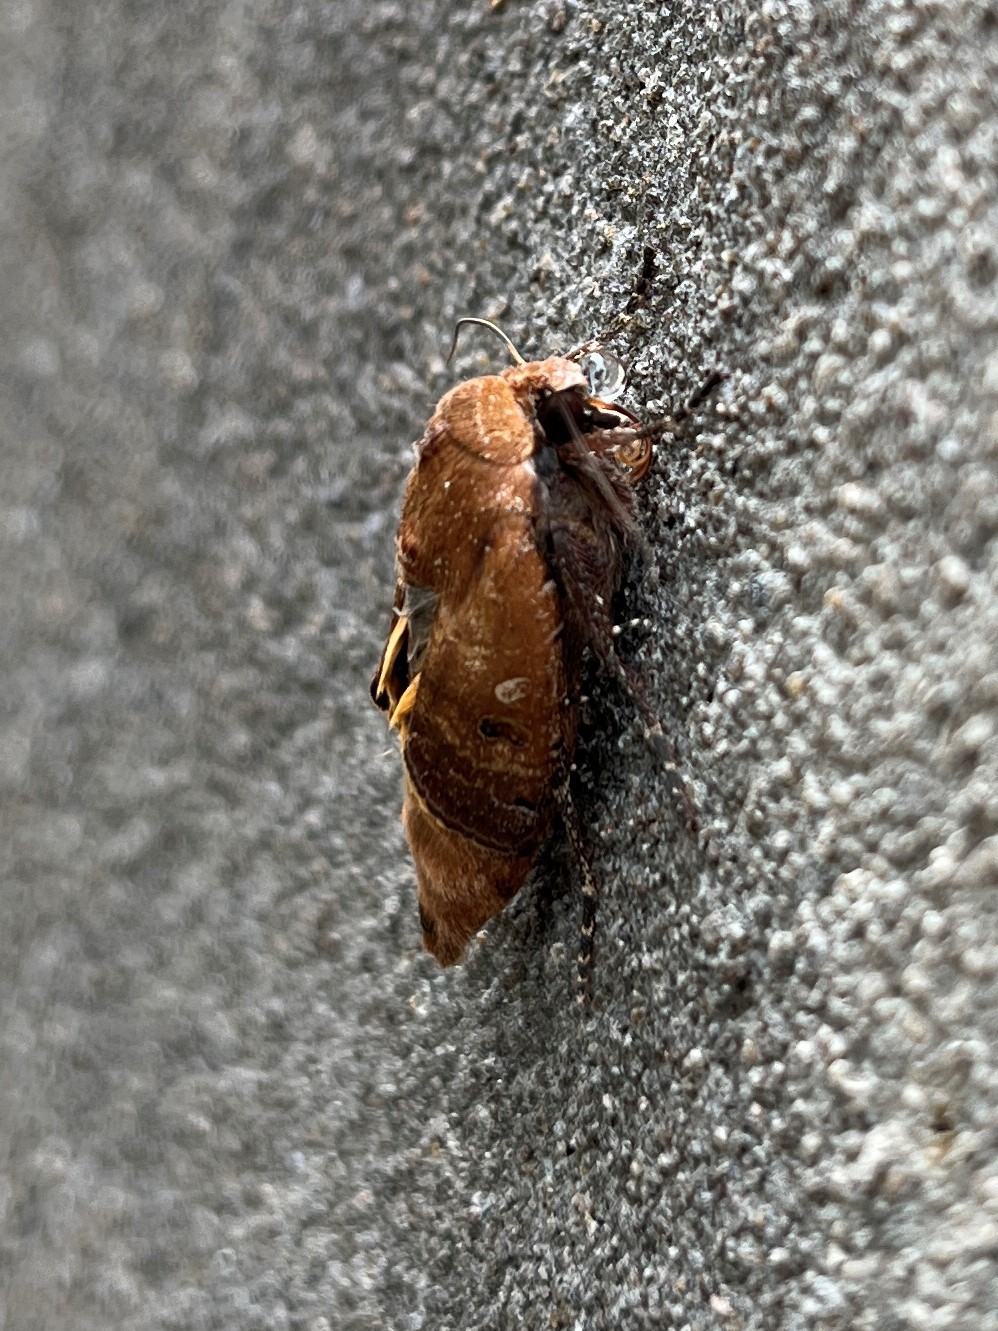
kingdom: Animalia
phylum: Arthropoda
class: Insecta
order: Lepidoptera
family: Noctuidae
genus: Noctua
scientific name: Noctua pronuba
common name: Large yellow underwing
